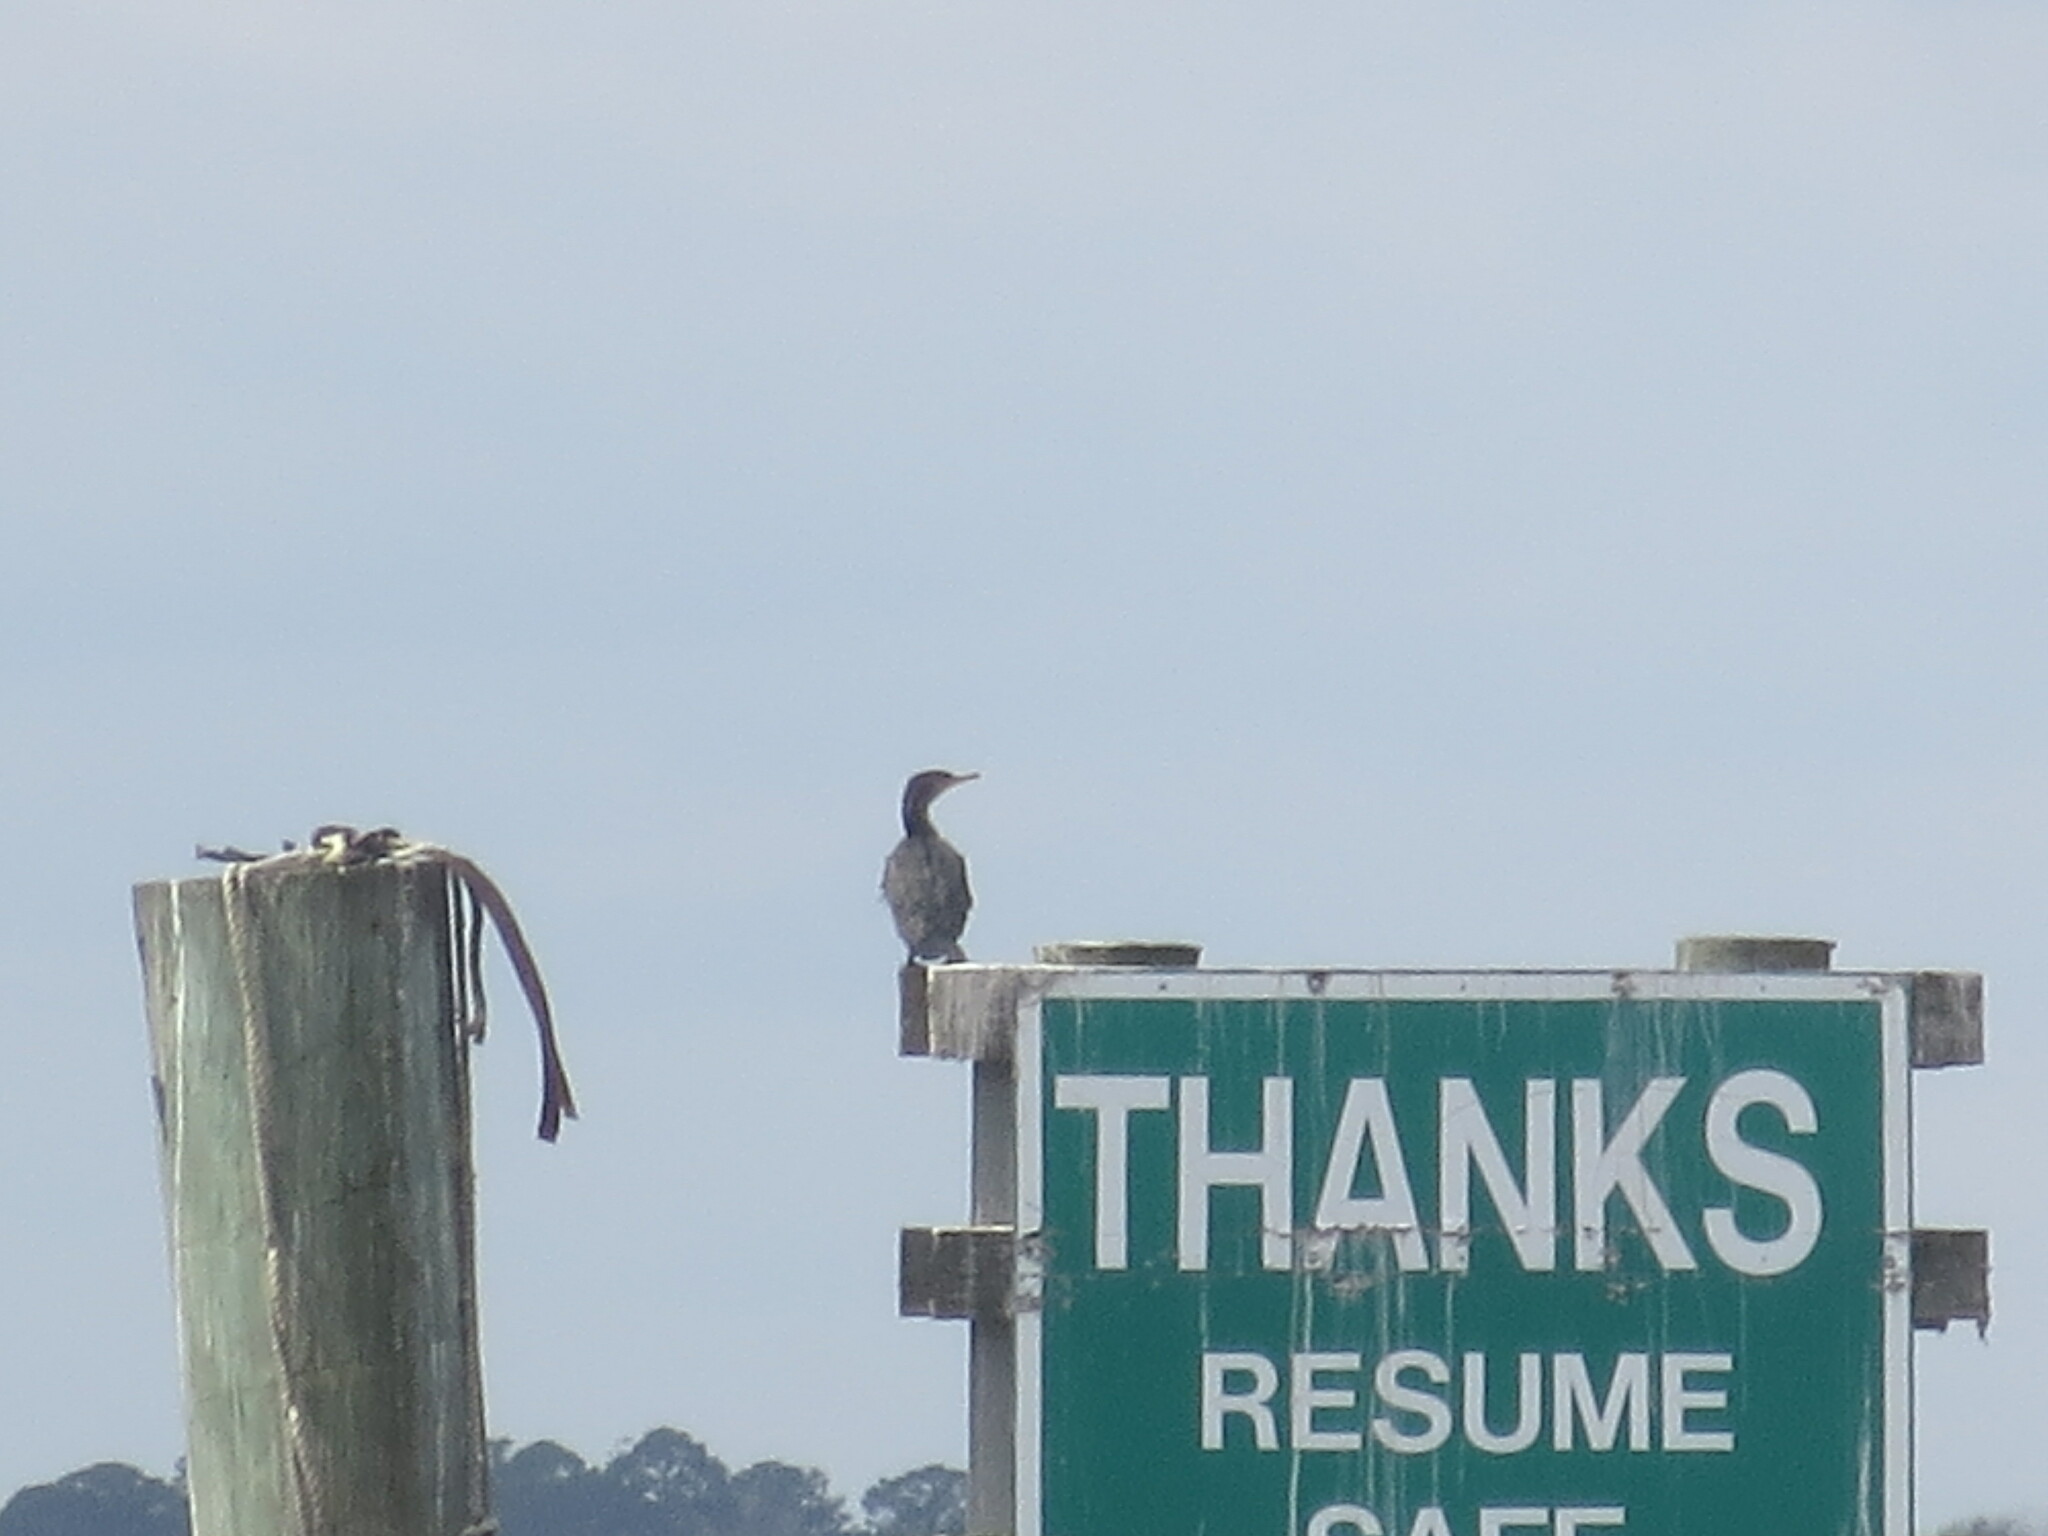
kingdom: Animalia
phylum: Chordata
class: Aves
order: Suliformes
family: Phalacrocoracidae
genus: Phalacrocorax
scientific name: Phalacrocorax auritus
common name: Double-crested cormorant
